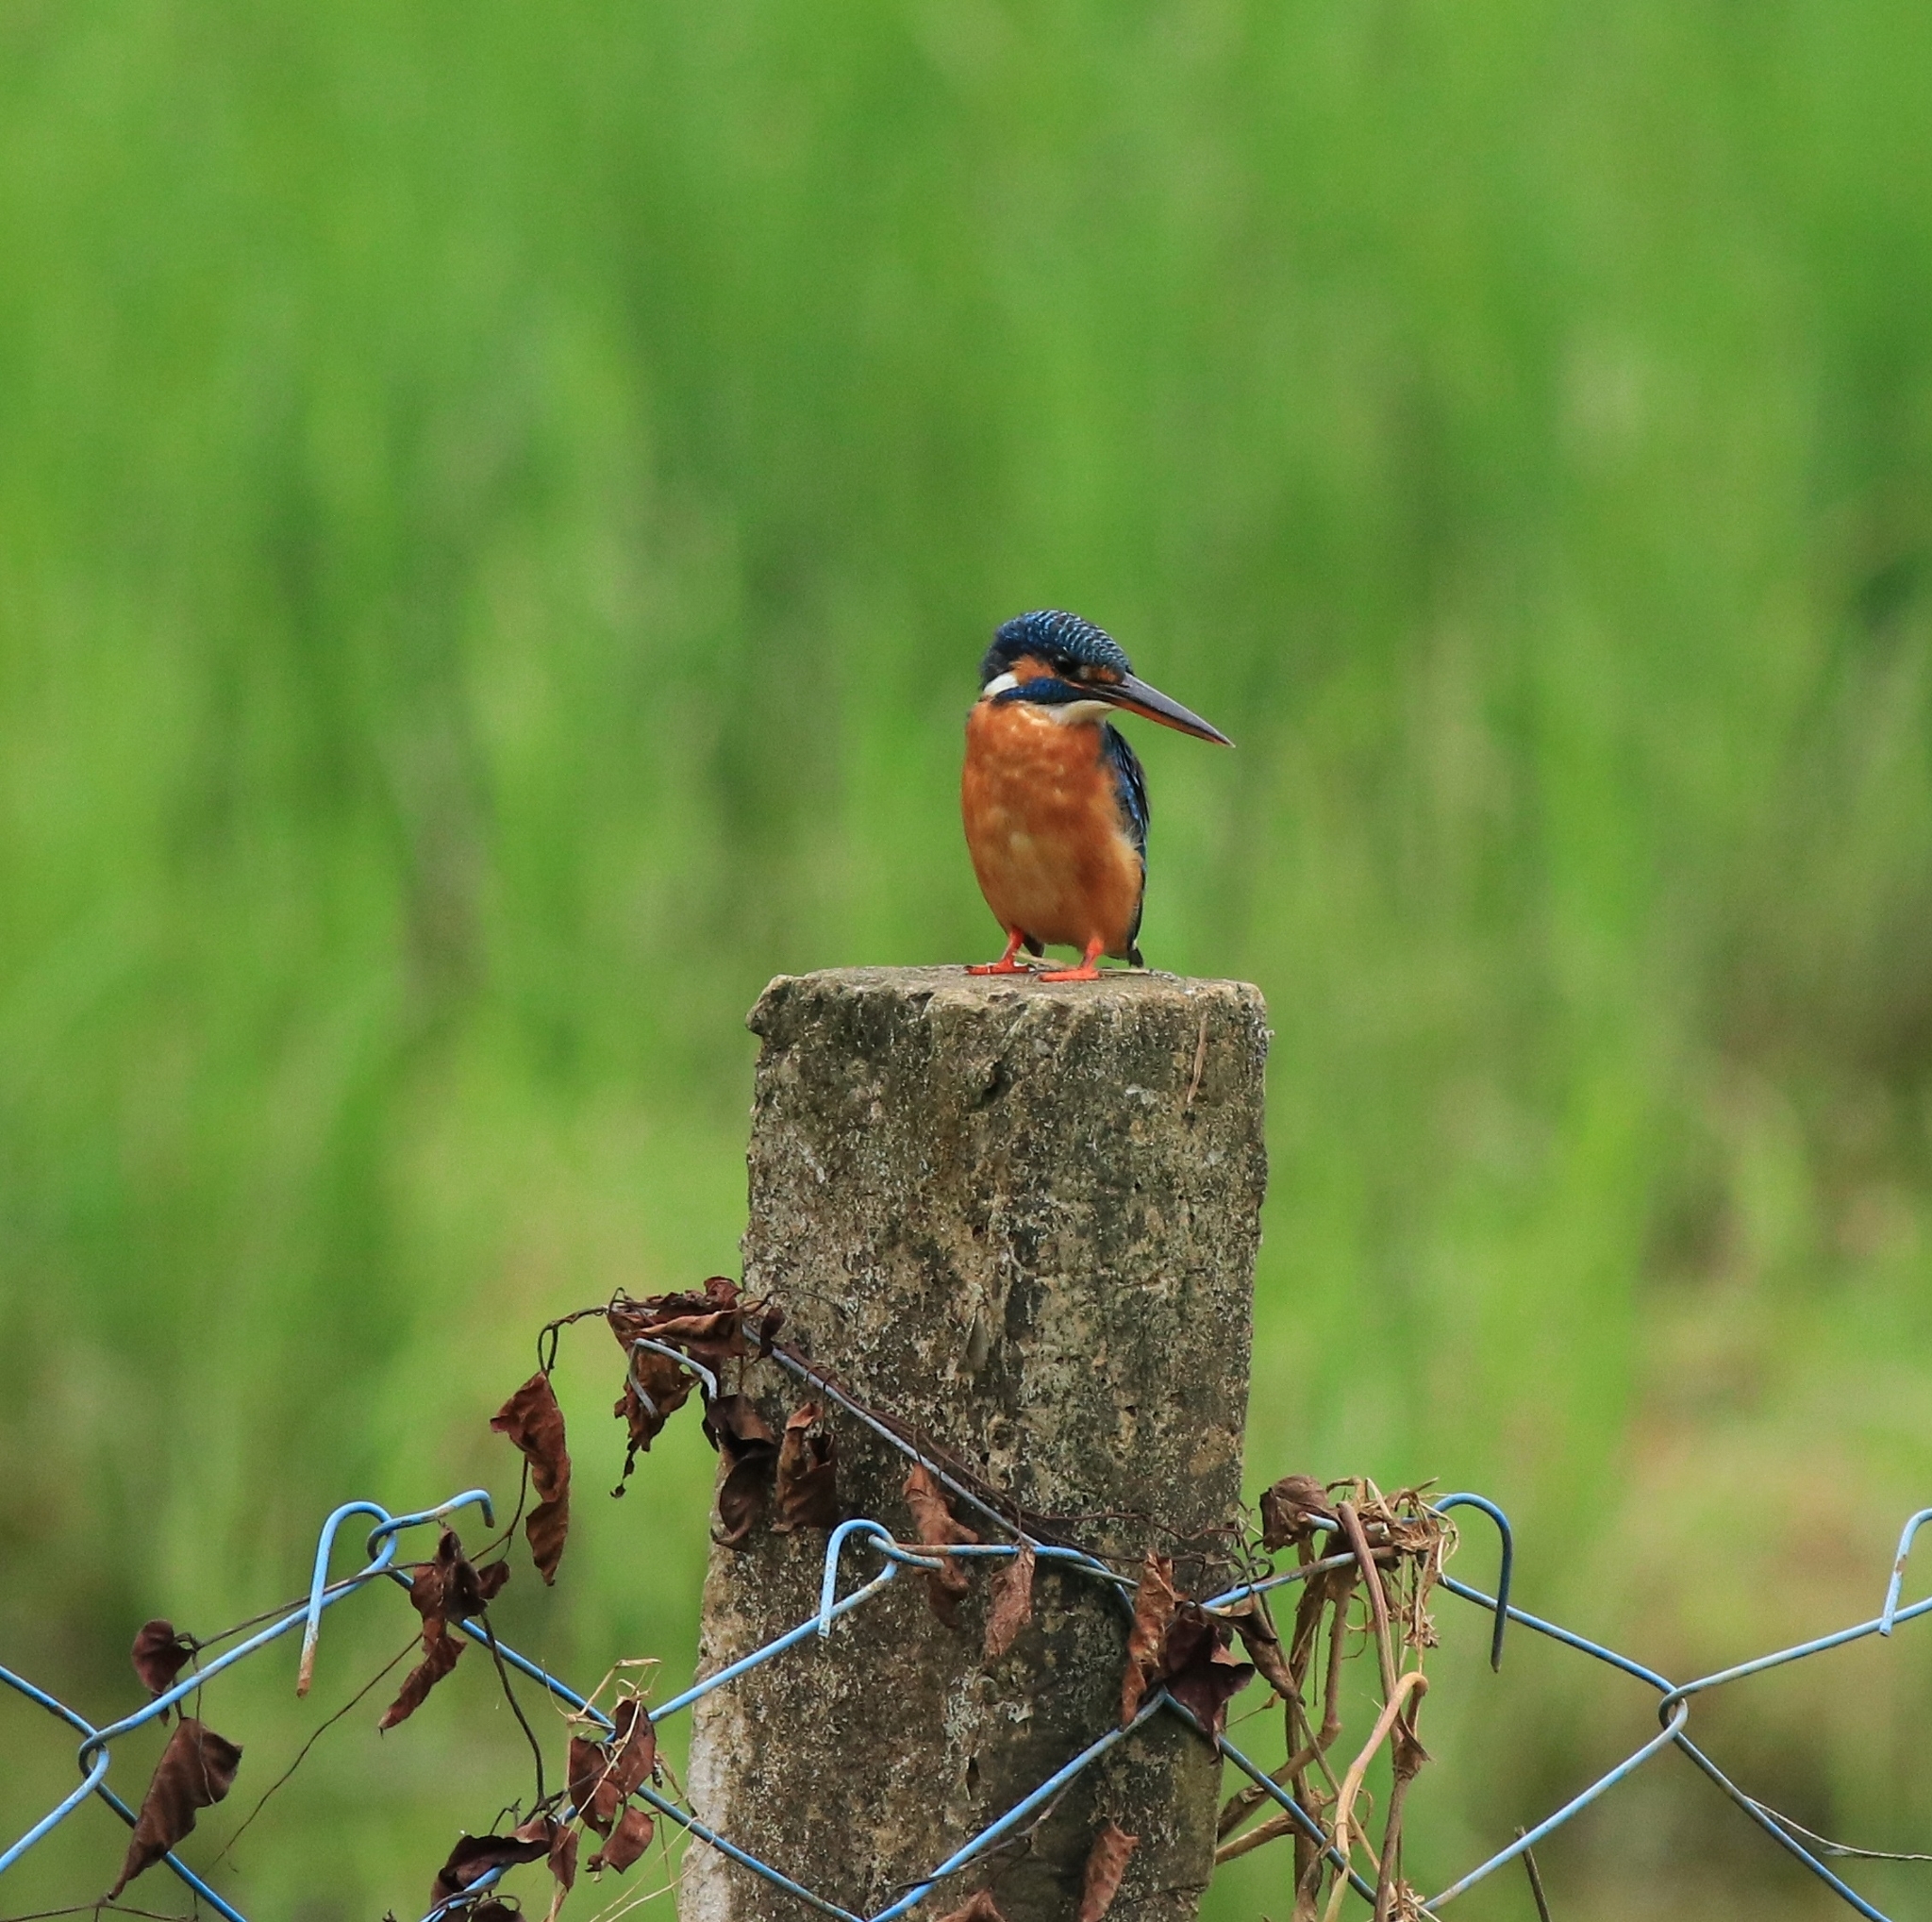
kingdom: Animalia
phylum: Chordata
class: Aves
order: Coraciiformes
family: Alcedinidae
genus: Alcedo
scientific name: Alcedo atthis
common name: Common kingfisher
